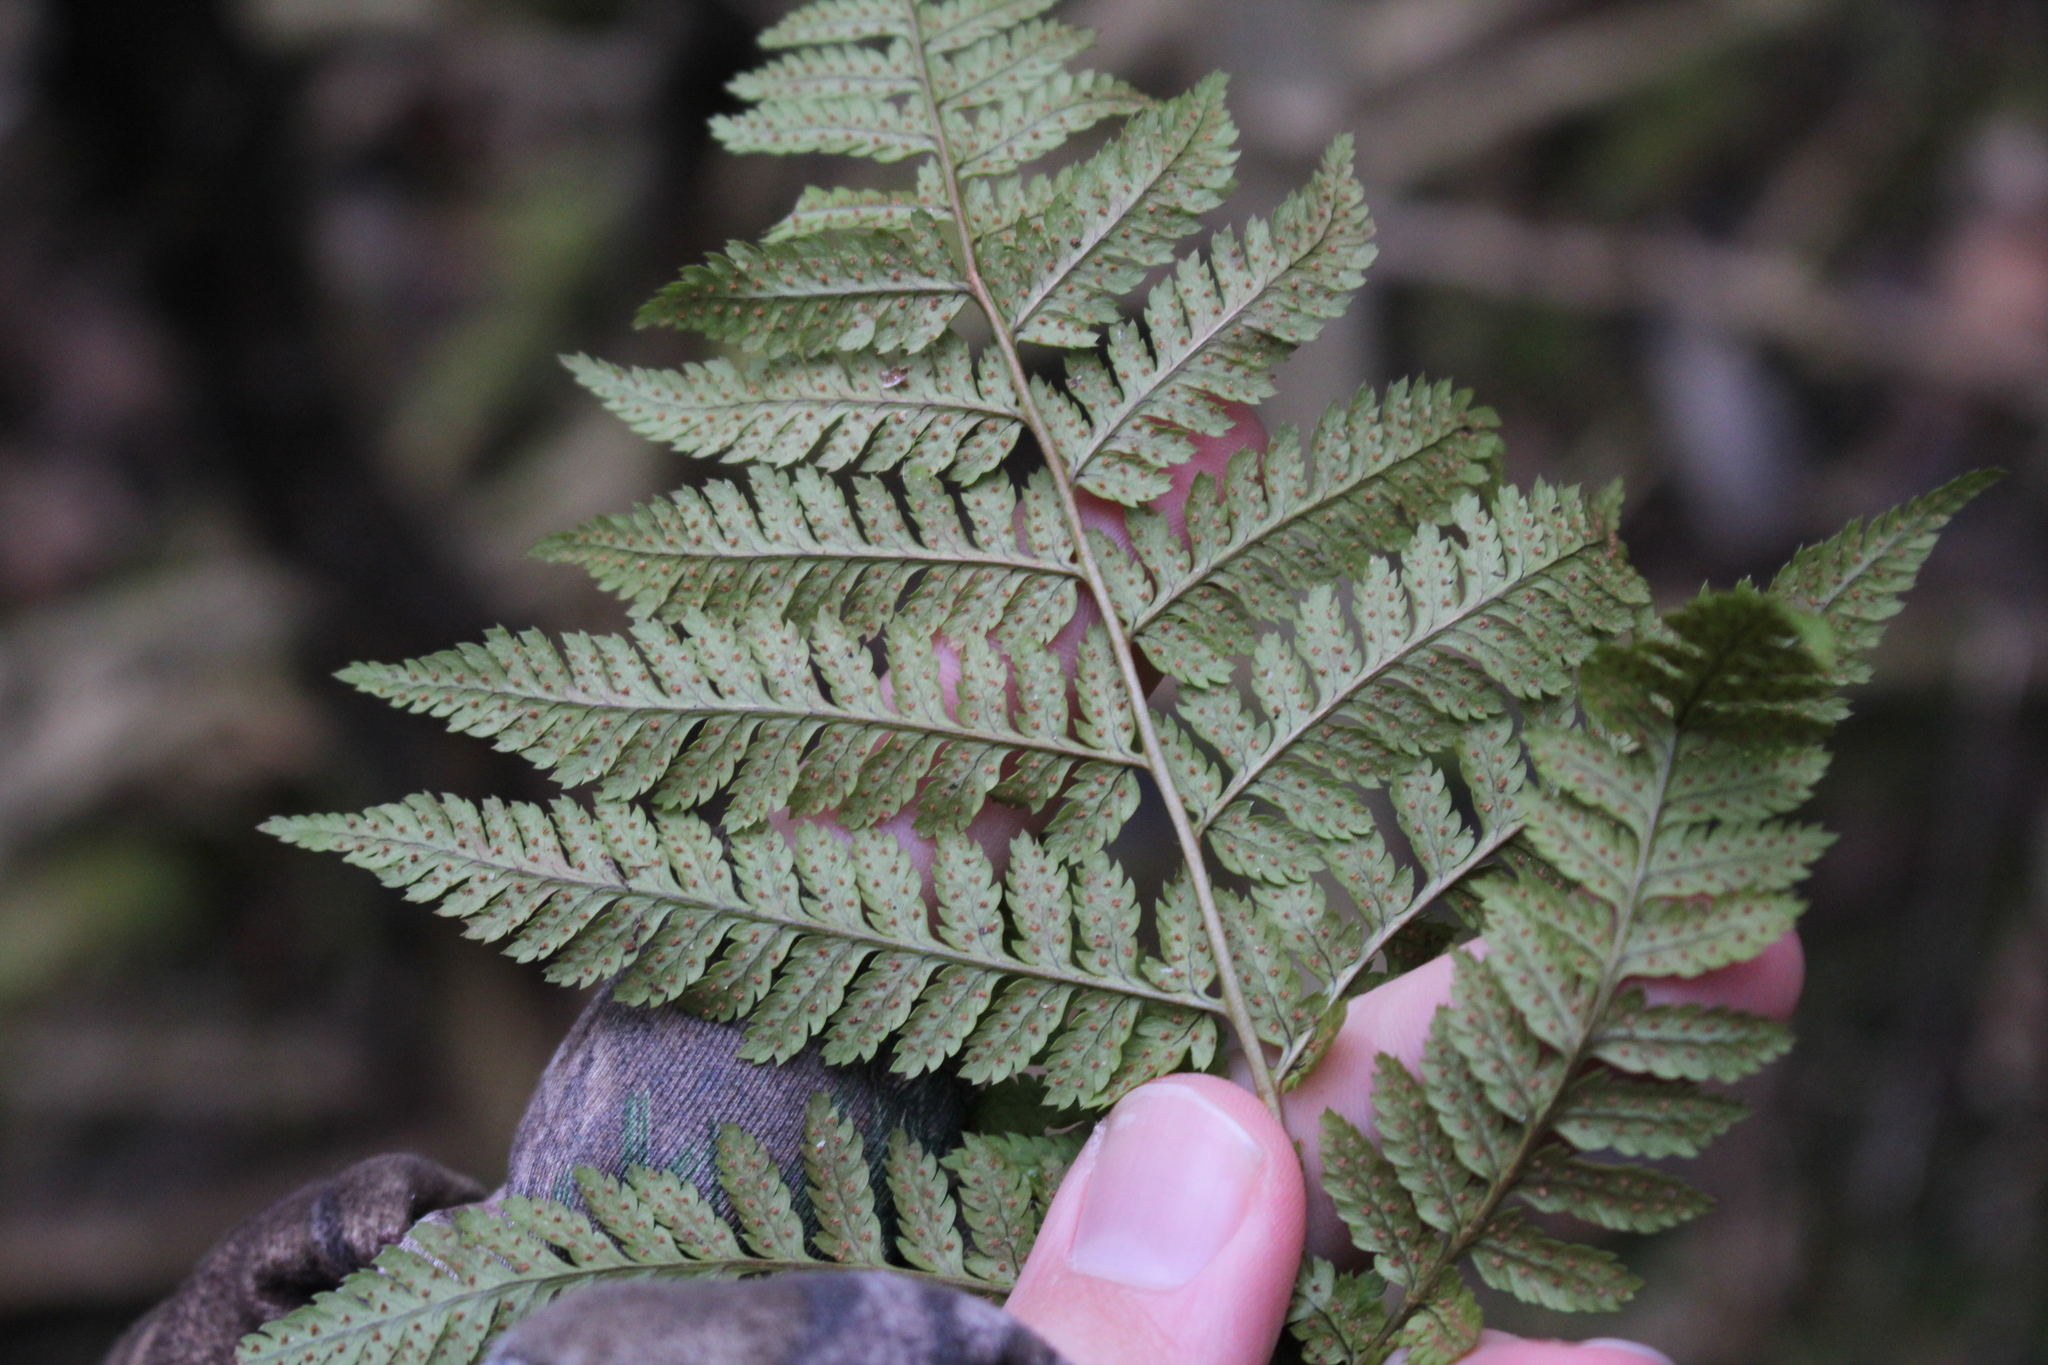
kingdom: Plantae
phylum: Tracheophyta
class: Polypodiopsida
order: Polypodiales
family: Dryopteridaceae
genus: Dryopteris
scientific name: Dryopteris carthusiana
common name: Narrow buckler-fern
